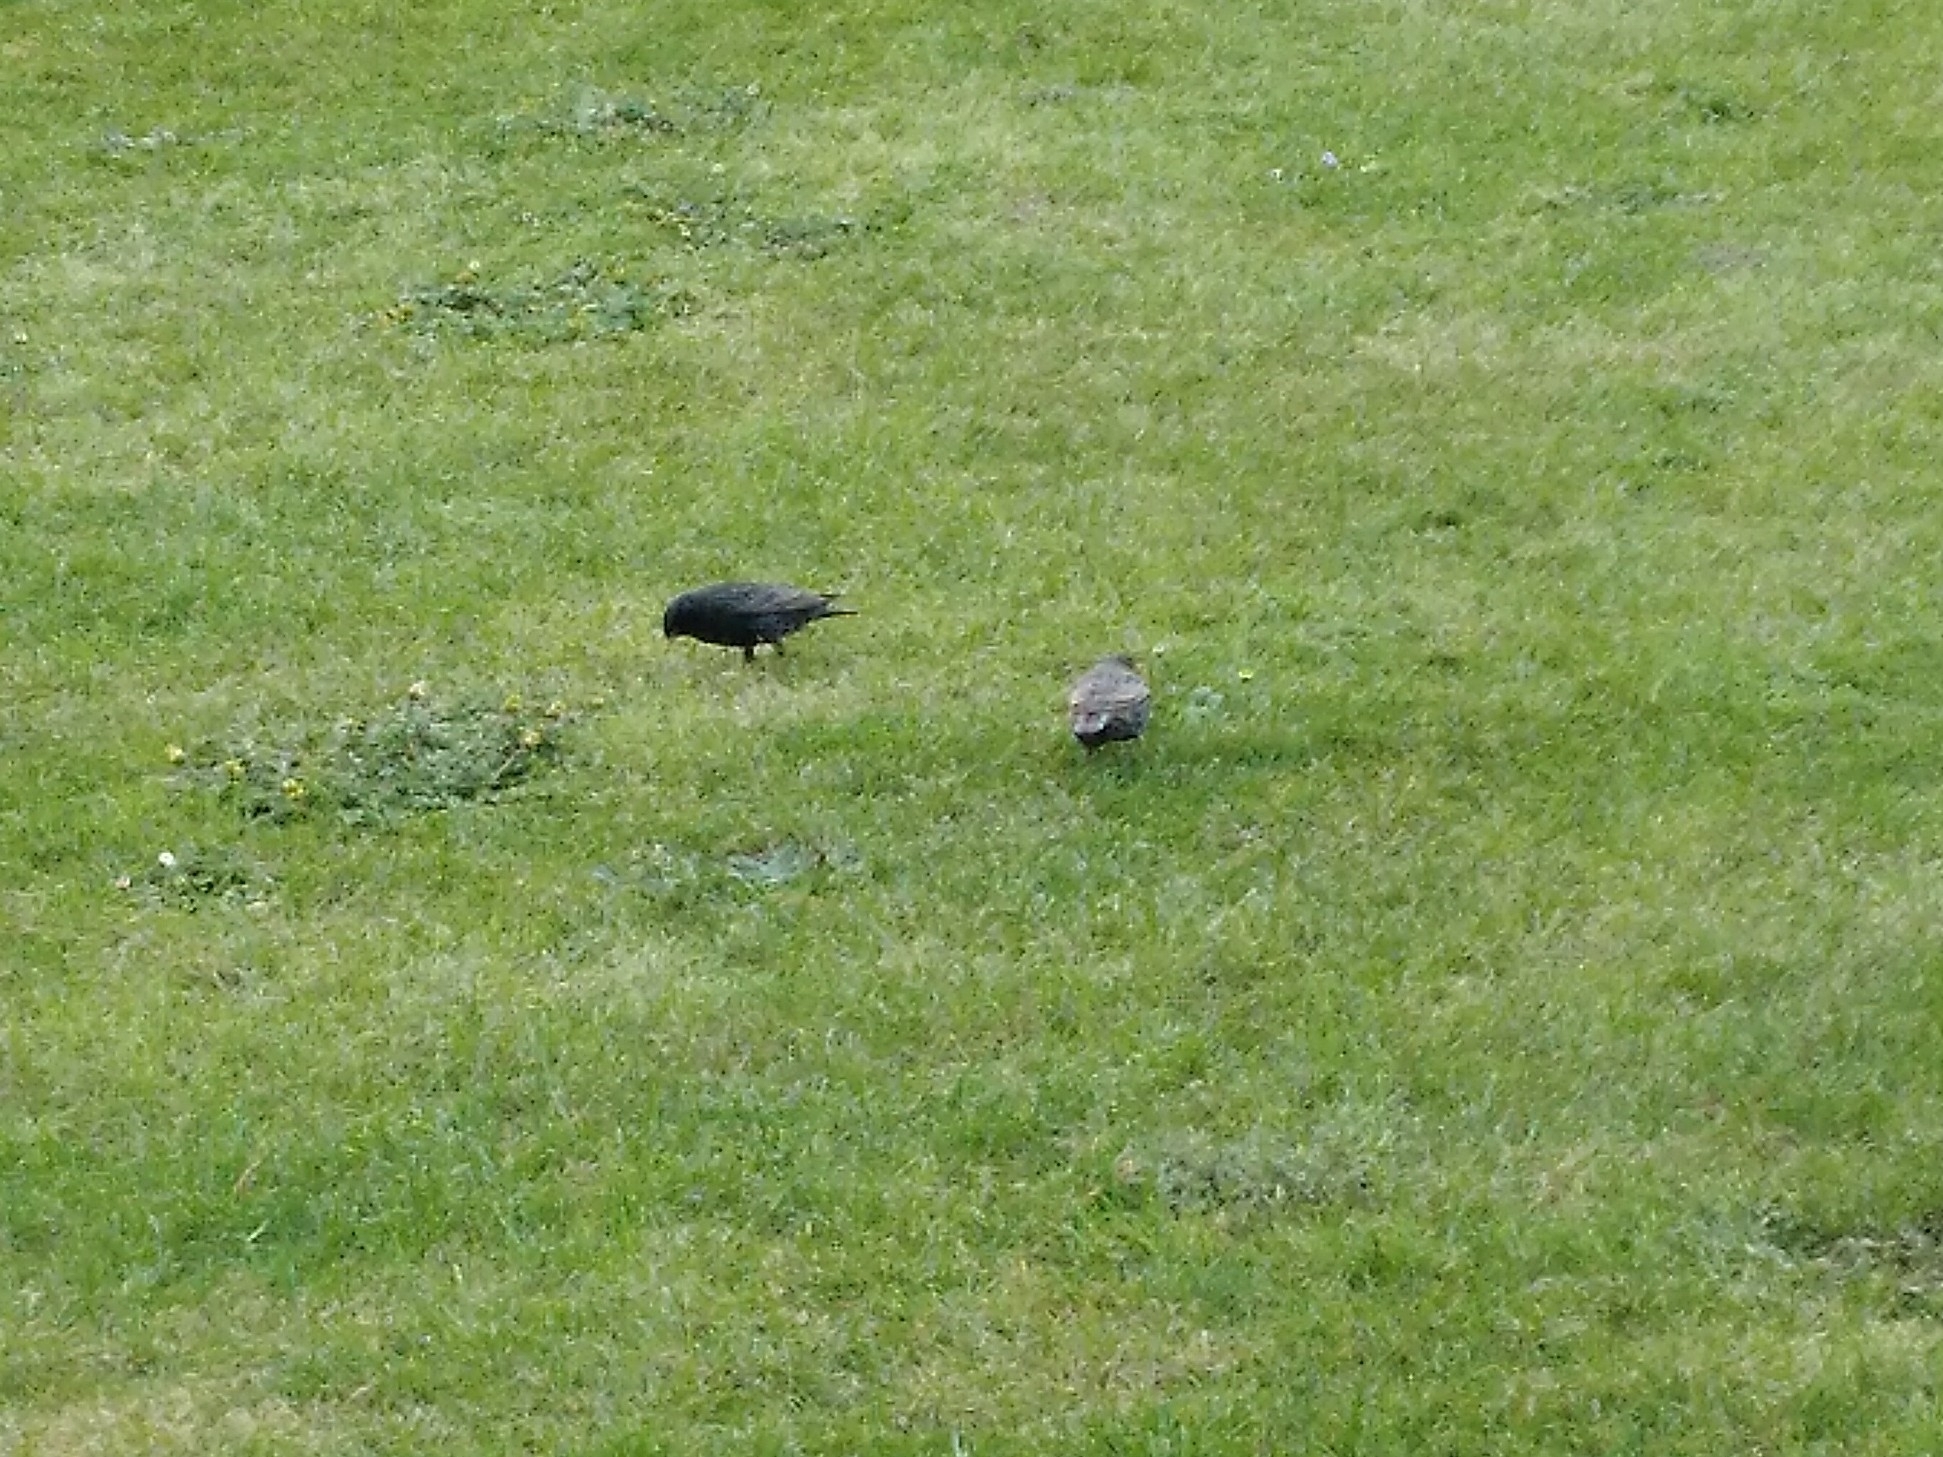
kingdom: Animalia
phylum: Chordata
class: Aves
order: Passeriformes
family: Sturnidae
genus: Sturnus
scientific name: Sturnus vulgaris
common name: Common starling
